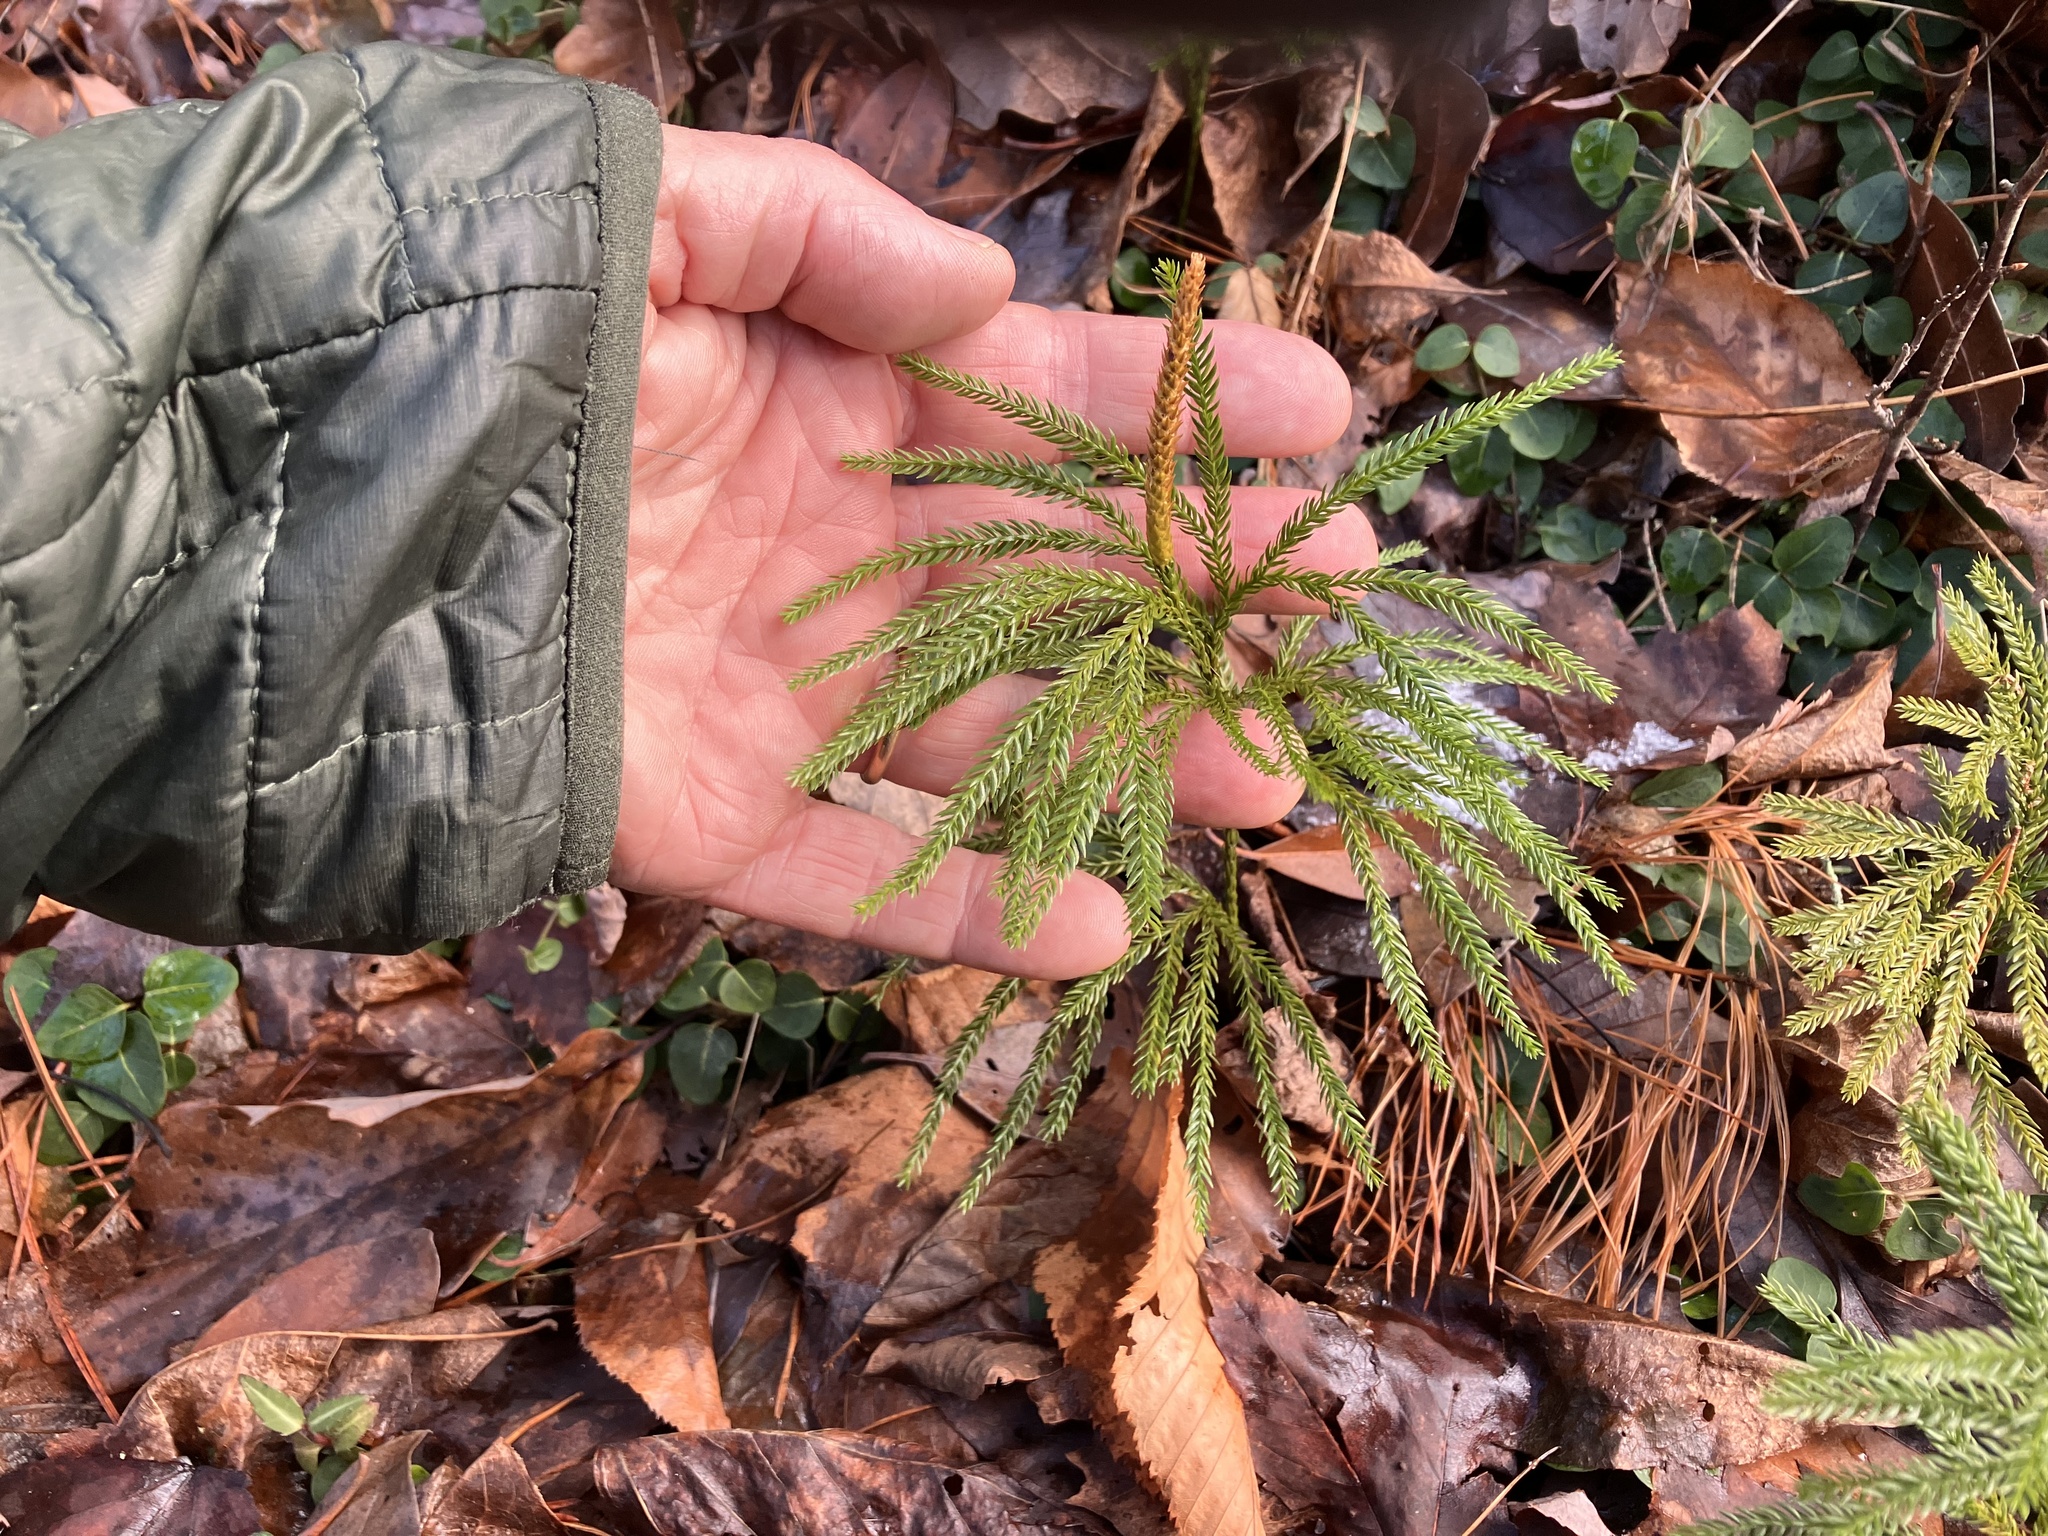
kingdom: Plantae
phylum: Tracheophyta
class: Lycopodiopsida
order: Lycopodiales
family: Lycopodiaceae
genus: Dendrolycopodium
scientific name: Dendrolycopodium obscurum
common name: Common ground-pine
